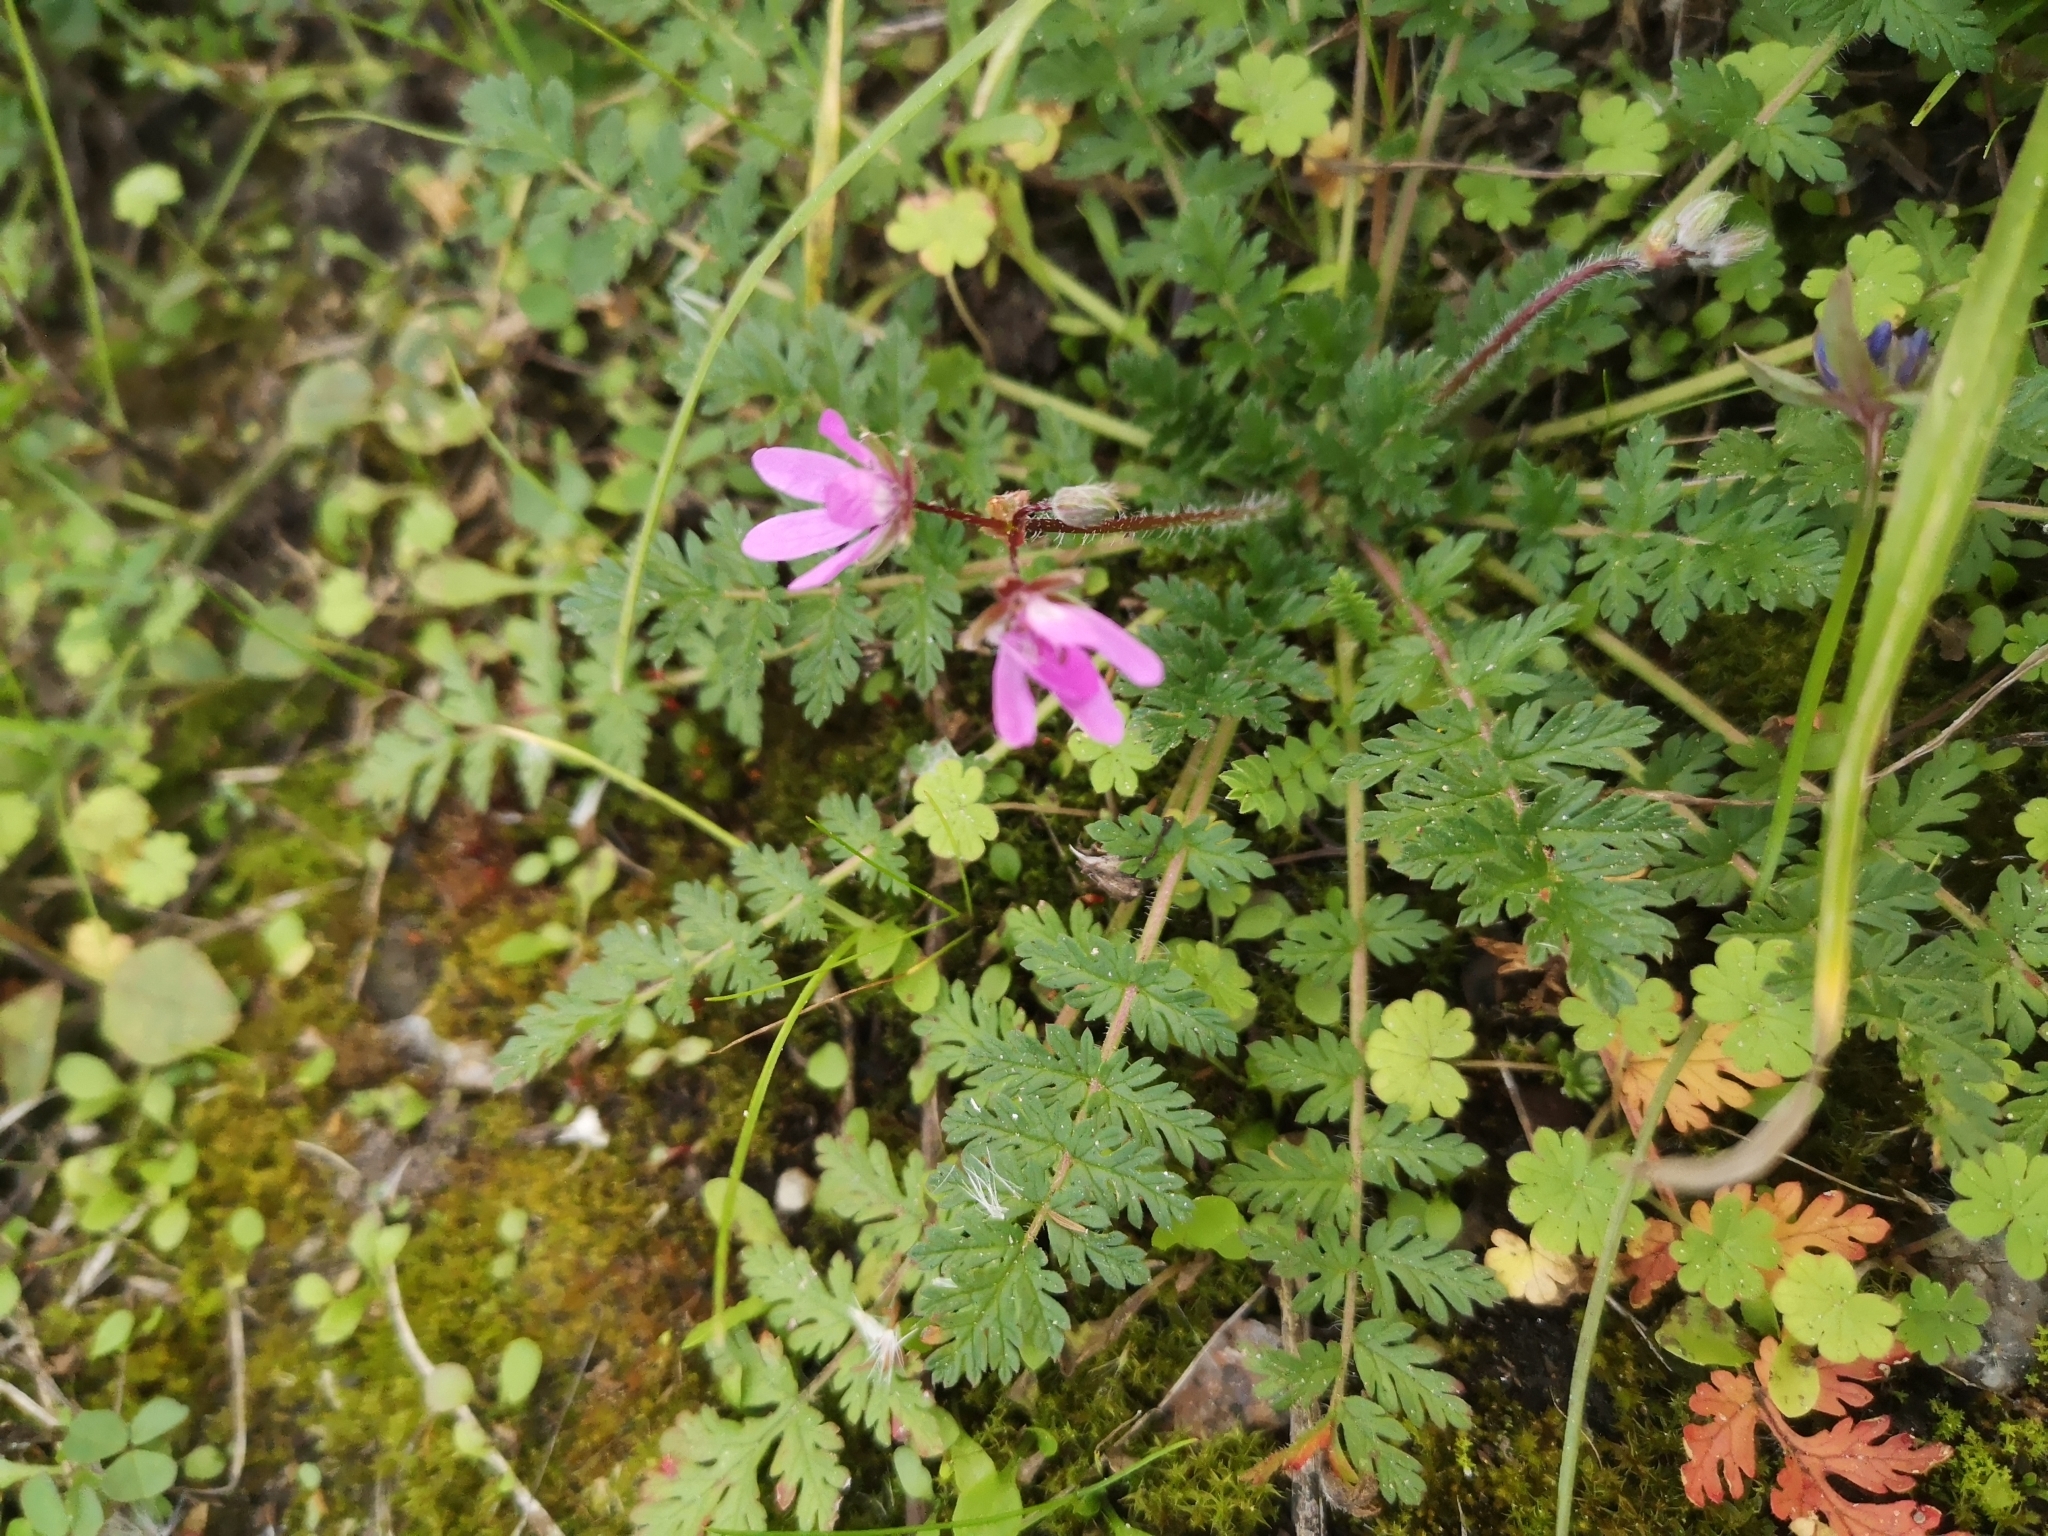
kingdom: Plantae
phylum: Tracheophyta
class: Magnoliopsida
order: Geraniales
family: Geraniaceae
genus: Erodium
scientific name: Erodium cicutarium
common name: Common stork's-bill
